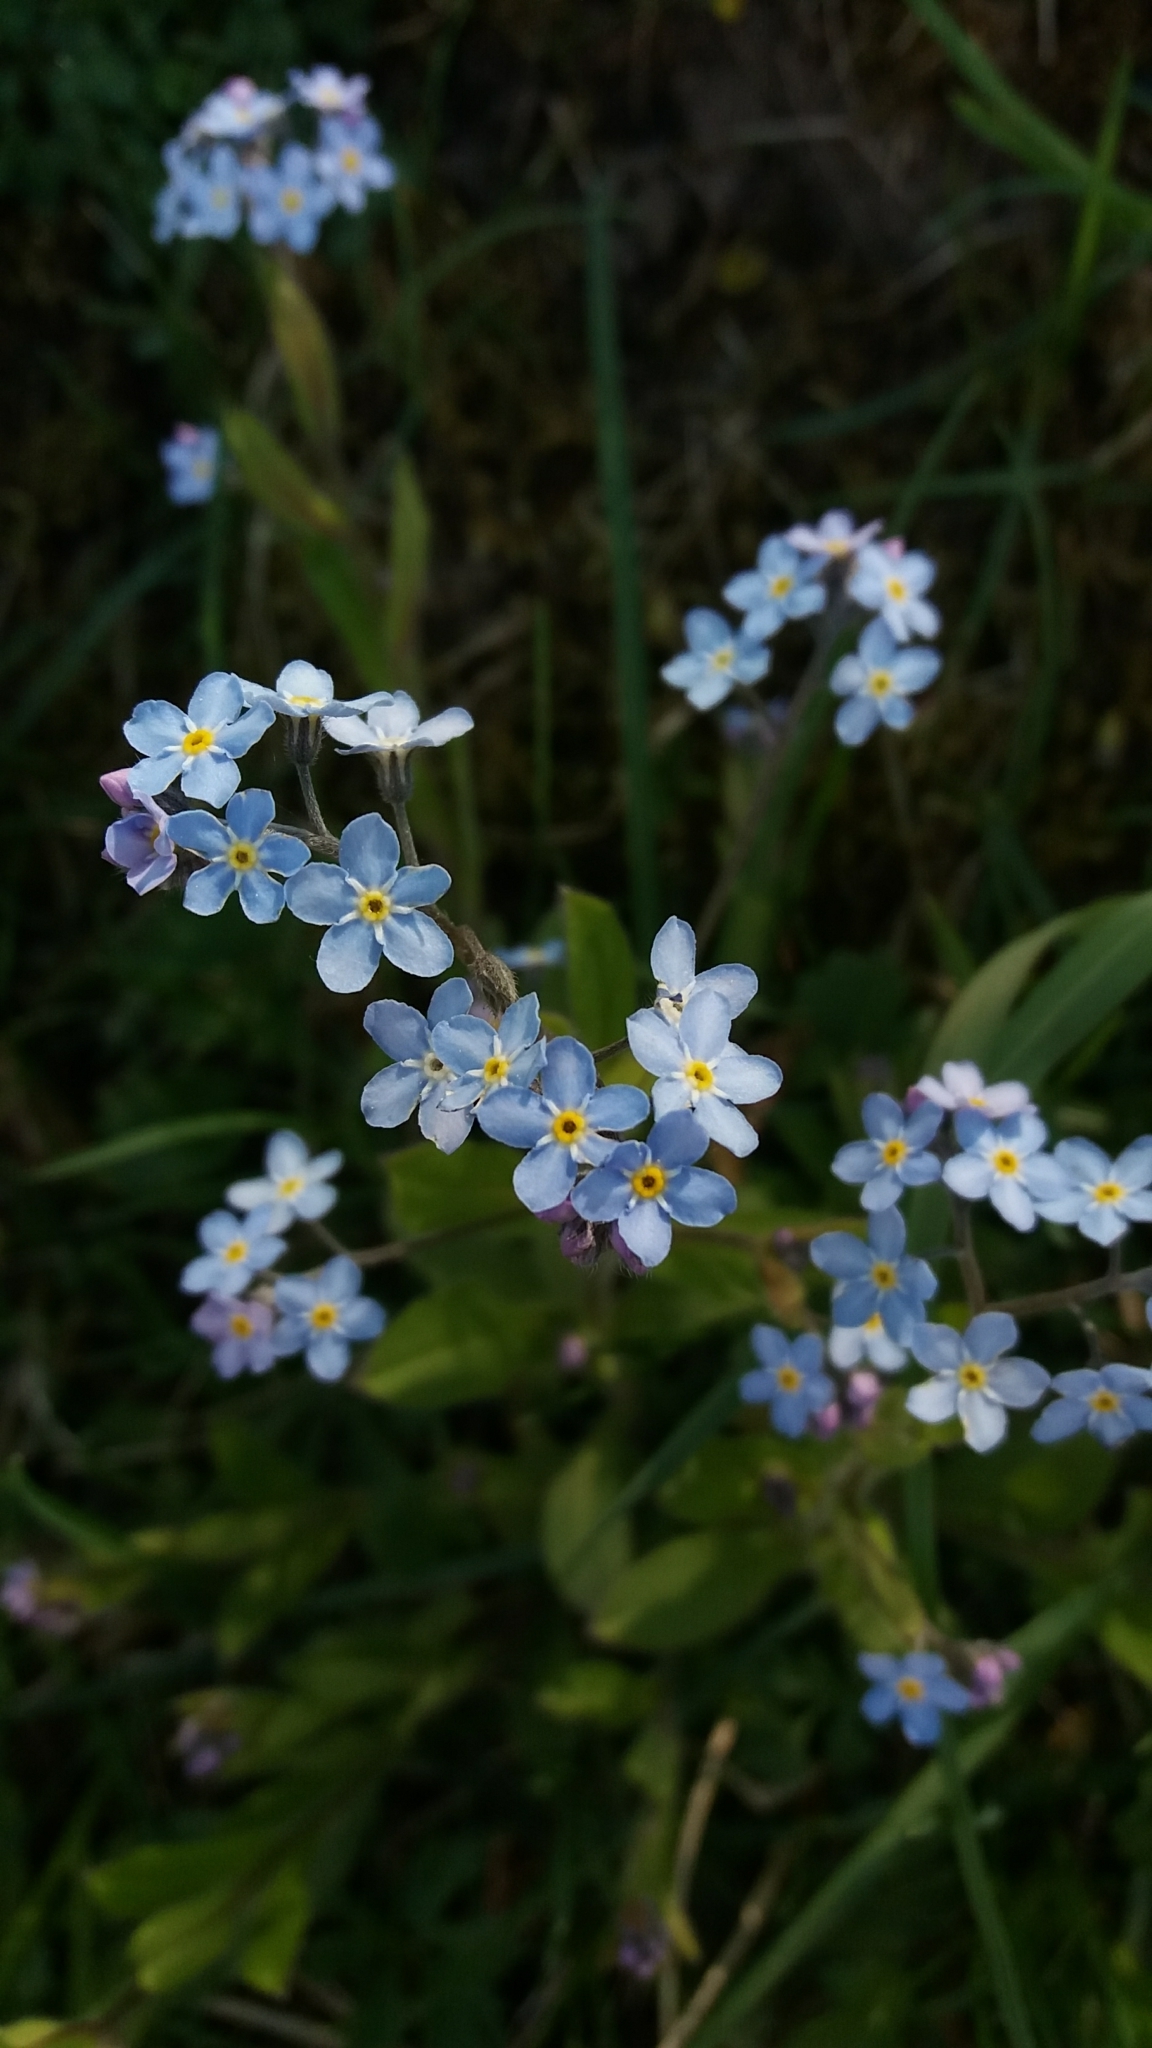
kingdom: Plantae
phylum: Tracheophyta
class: Magnoliopsida
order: Boraginales
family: Boraginaceae
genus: Myosotis
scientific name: Myosotis
